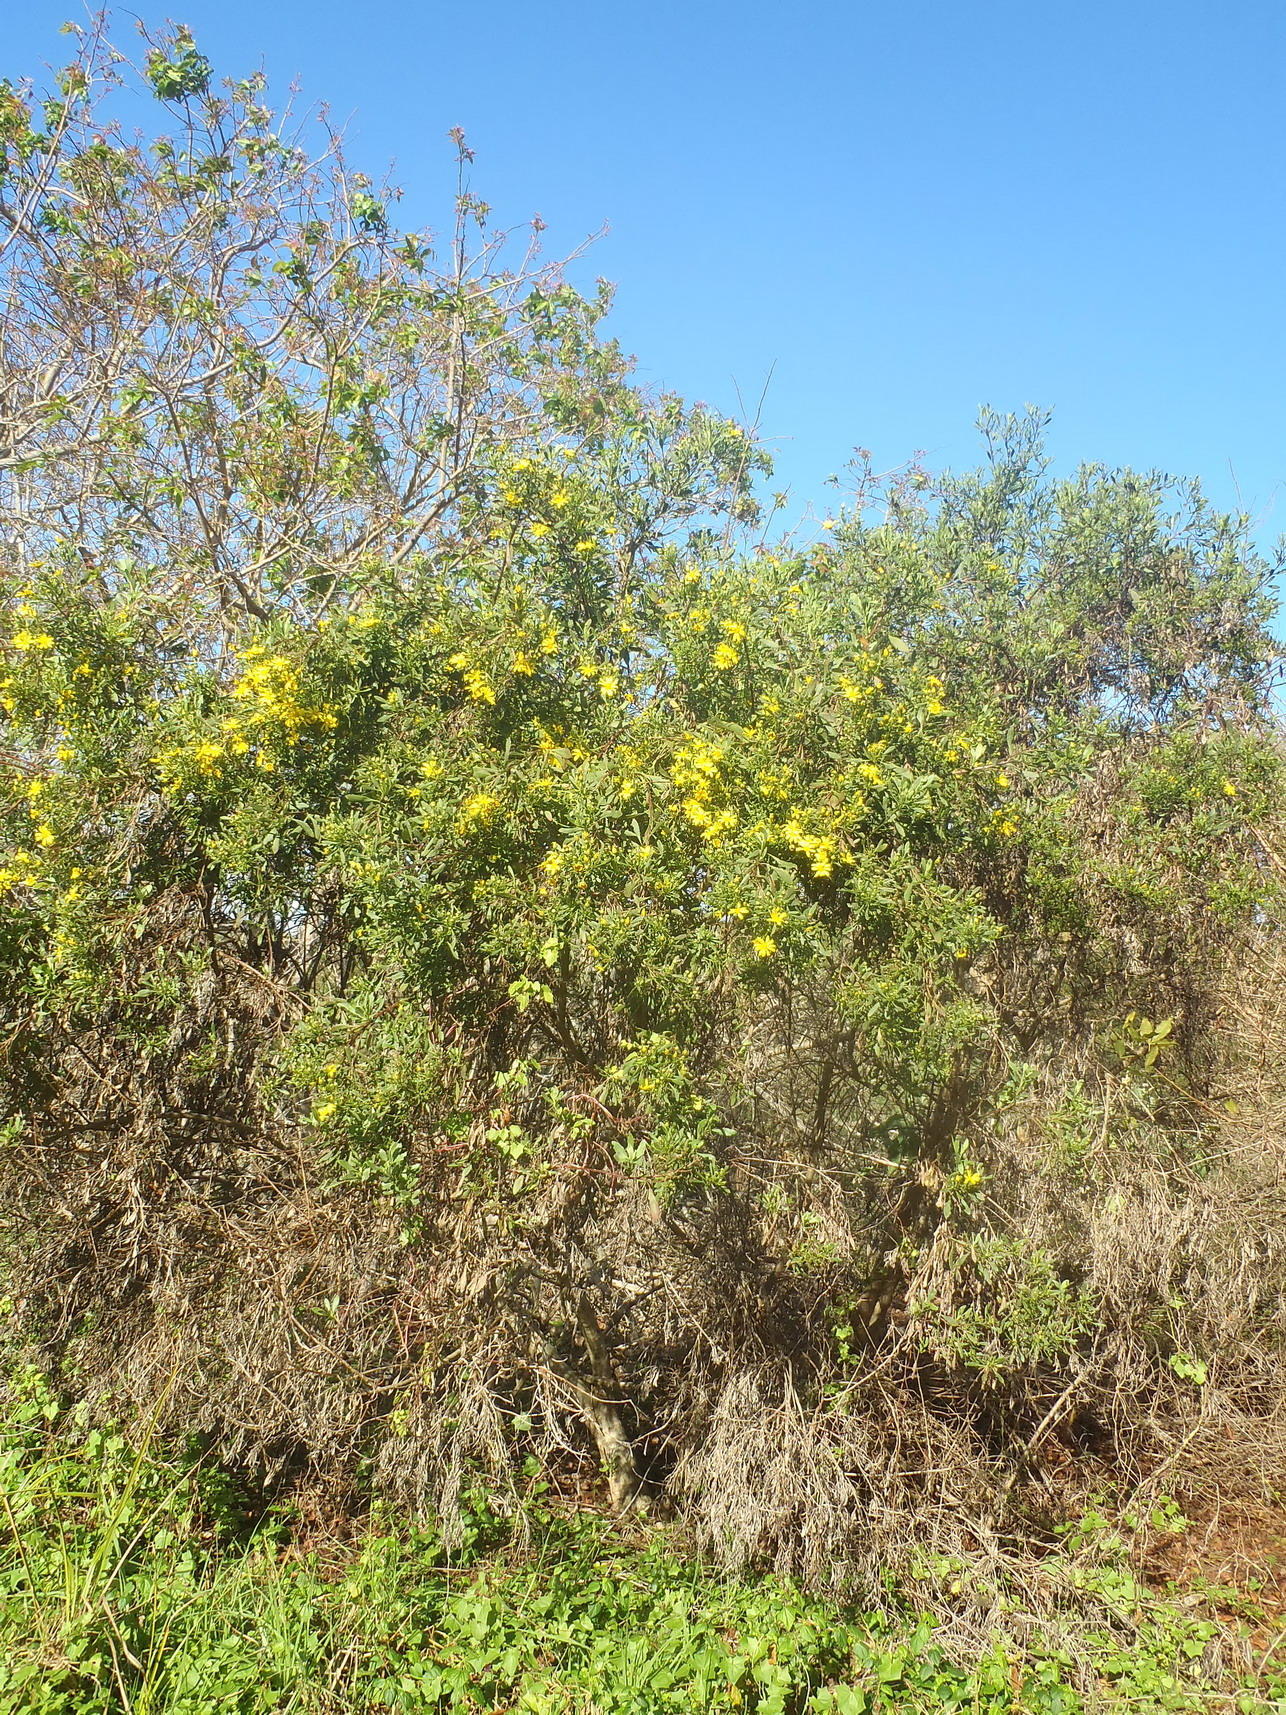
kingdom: Plantae
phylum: Tracheophyta
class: Magnoliopsida
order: Asterales
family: Asteraceae
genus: Osteospermum
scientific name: Osteospermum moniliferum
